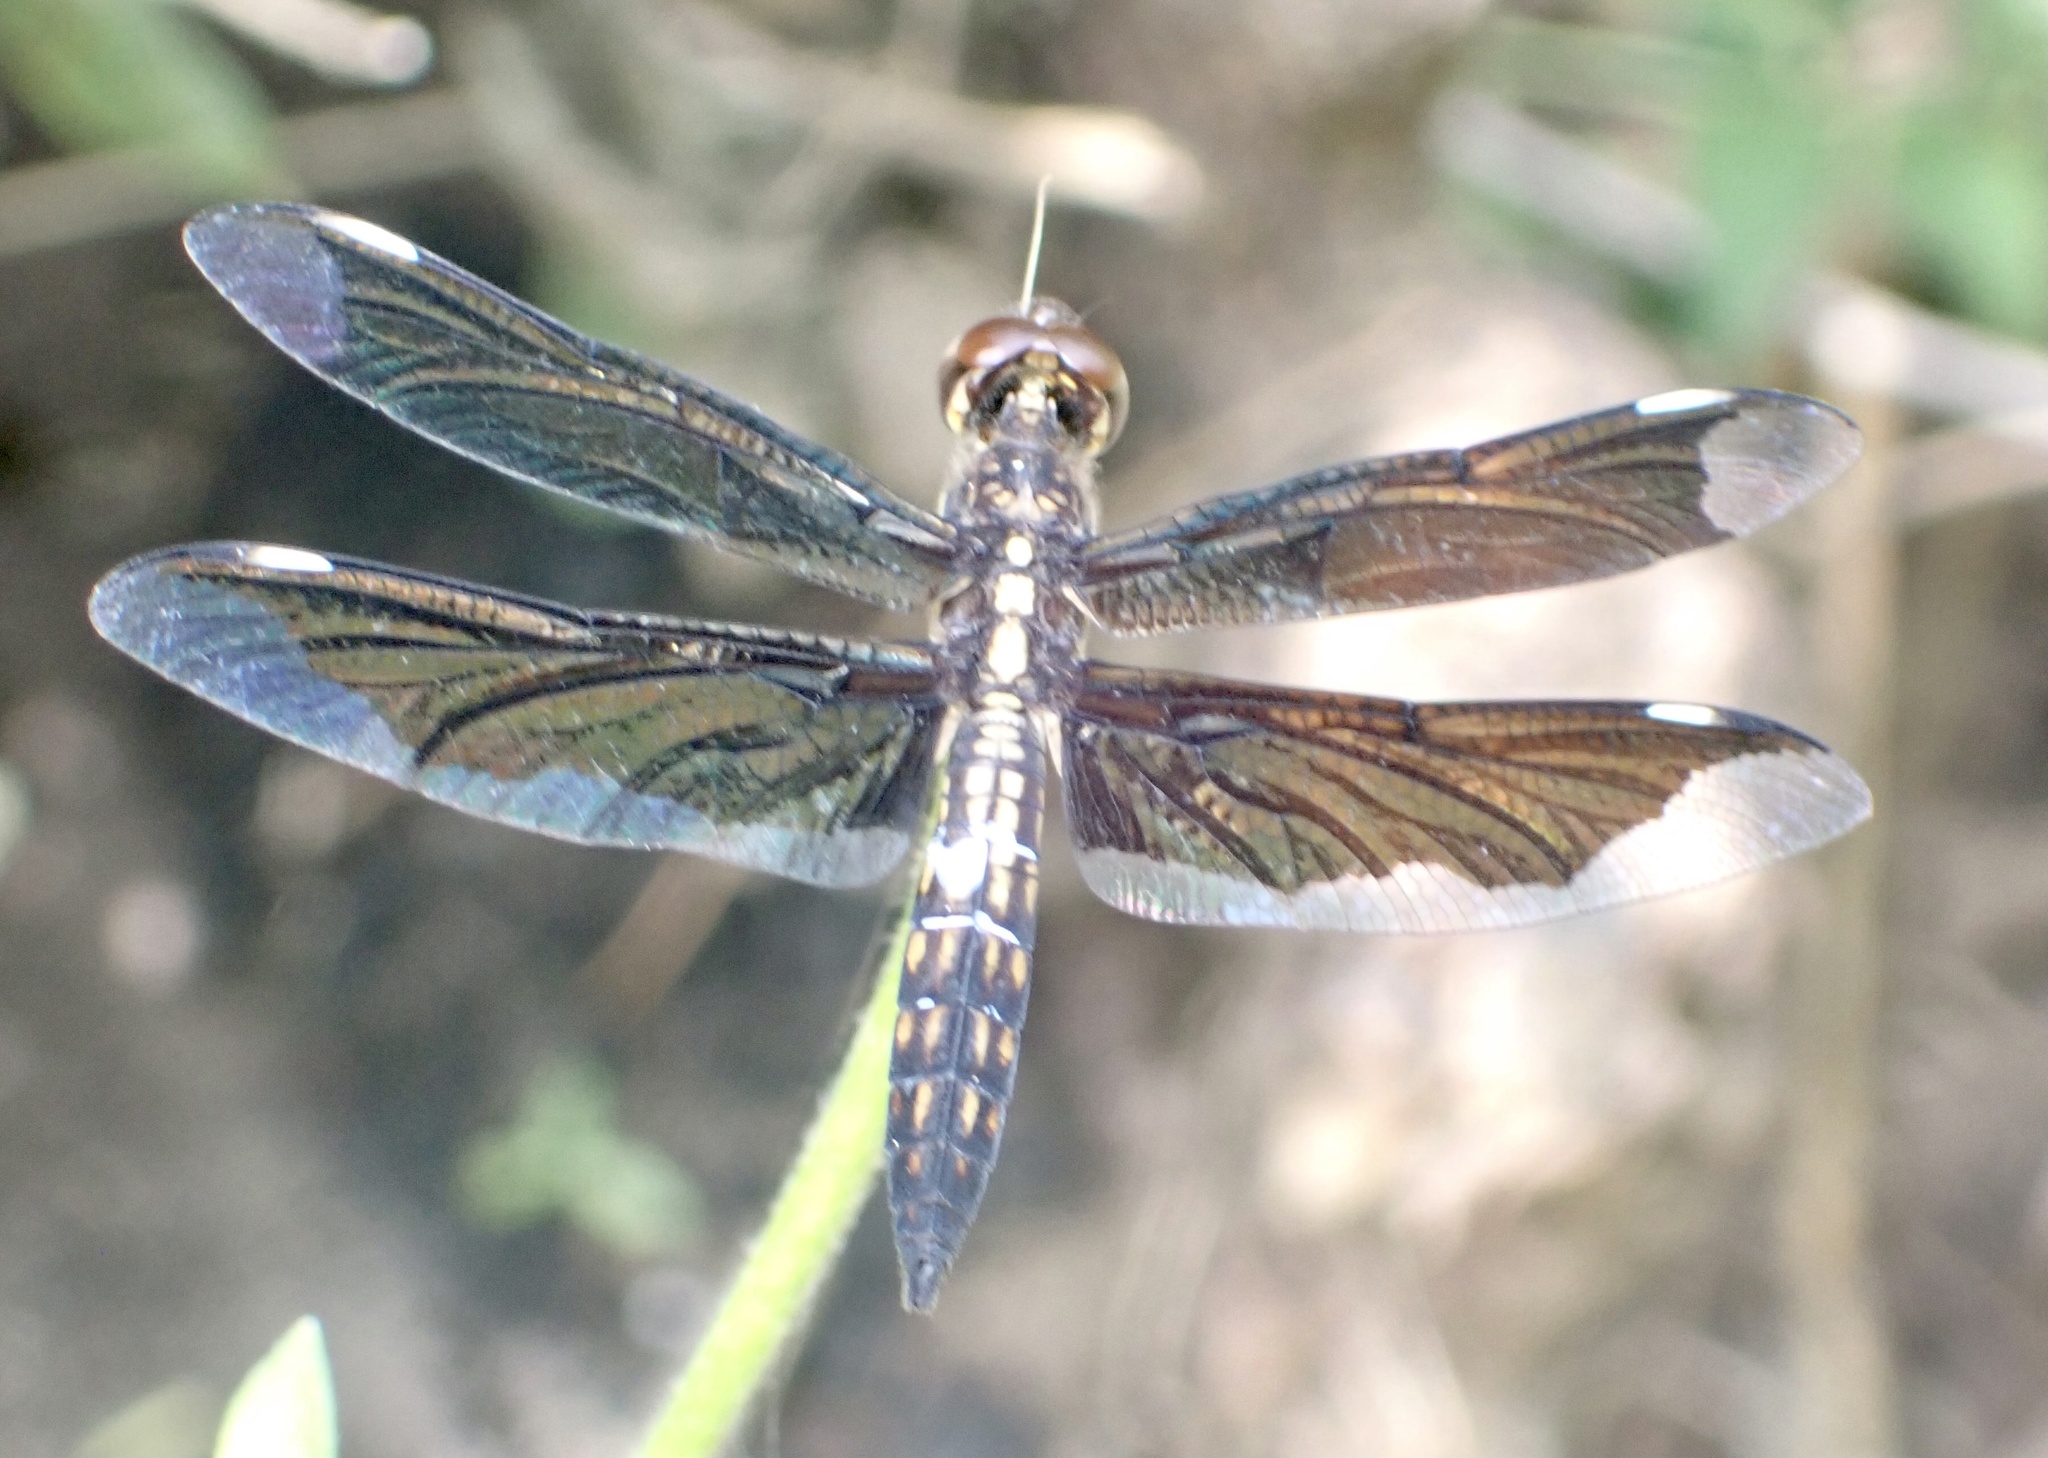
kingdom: Animalia
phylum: Arthropoda
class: Insecta
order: Odonata
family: Libellulidae
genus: Palpopleura
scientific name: Palpopleura lucia
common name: Lucia widow
